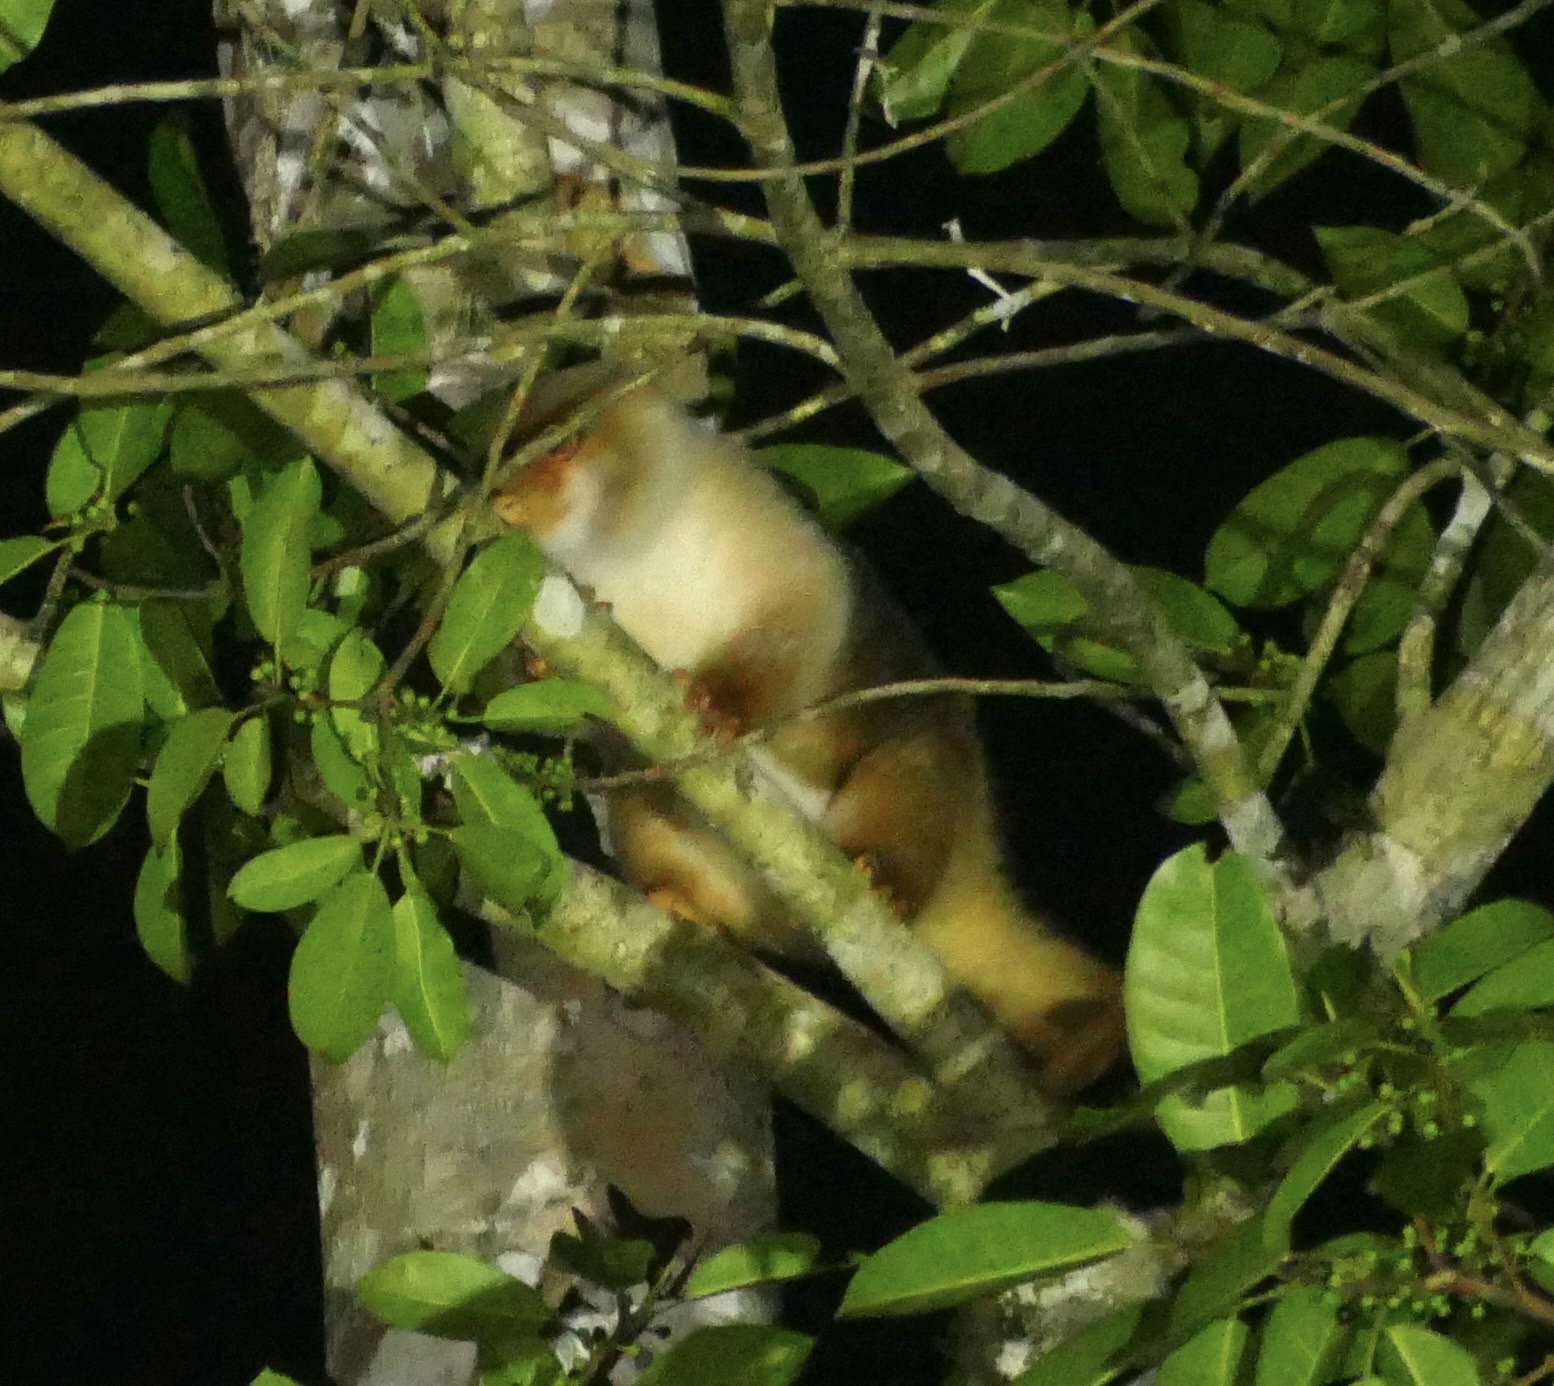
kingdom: Animalia
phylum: Chordata
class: Mammalia
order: Diprotodontia
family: Phalangeridae
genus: Spilocuscus
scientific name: Spilocuscus maculatus
